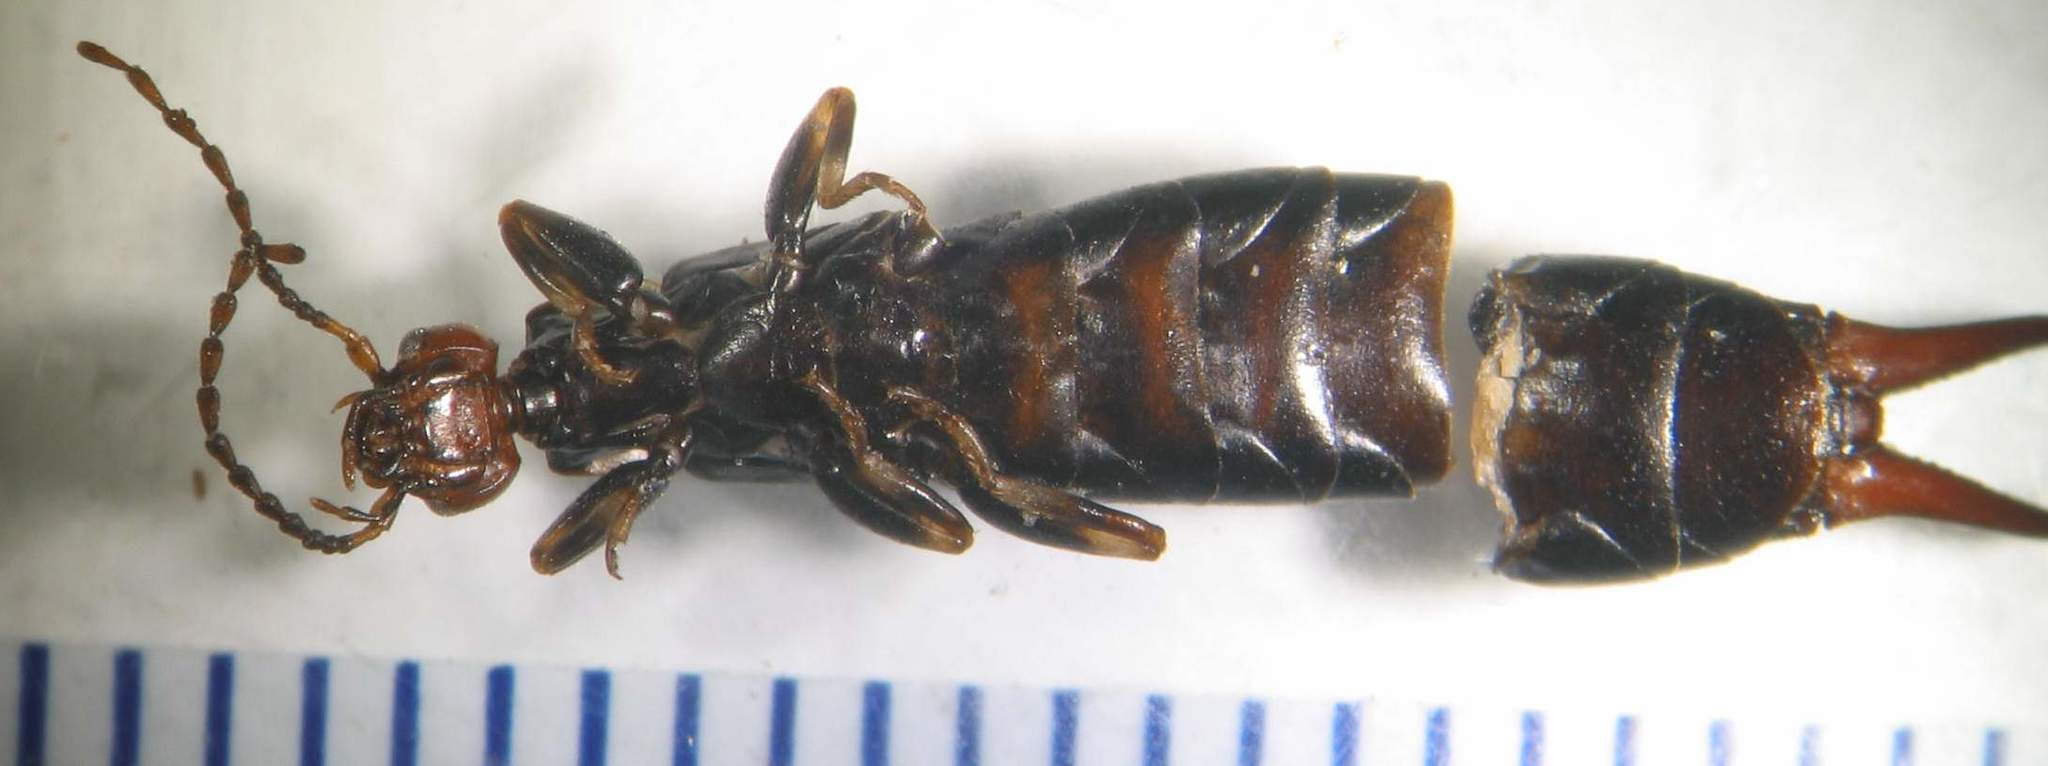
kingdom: Animalia
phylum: Arthropoda
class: Insecta
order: Dermaptera
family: Spongiphoridae
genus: Nesogaster
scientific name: Nesogaster ruficeps
